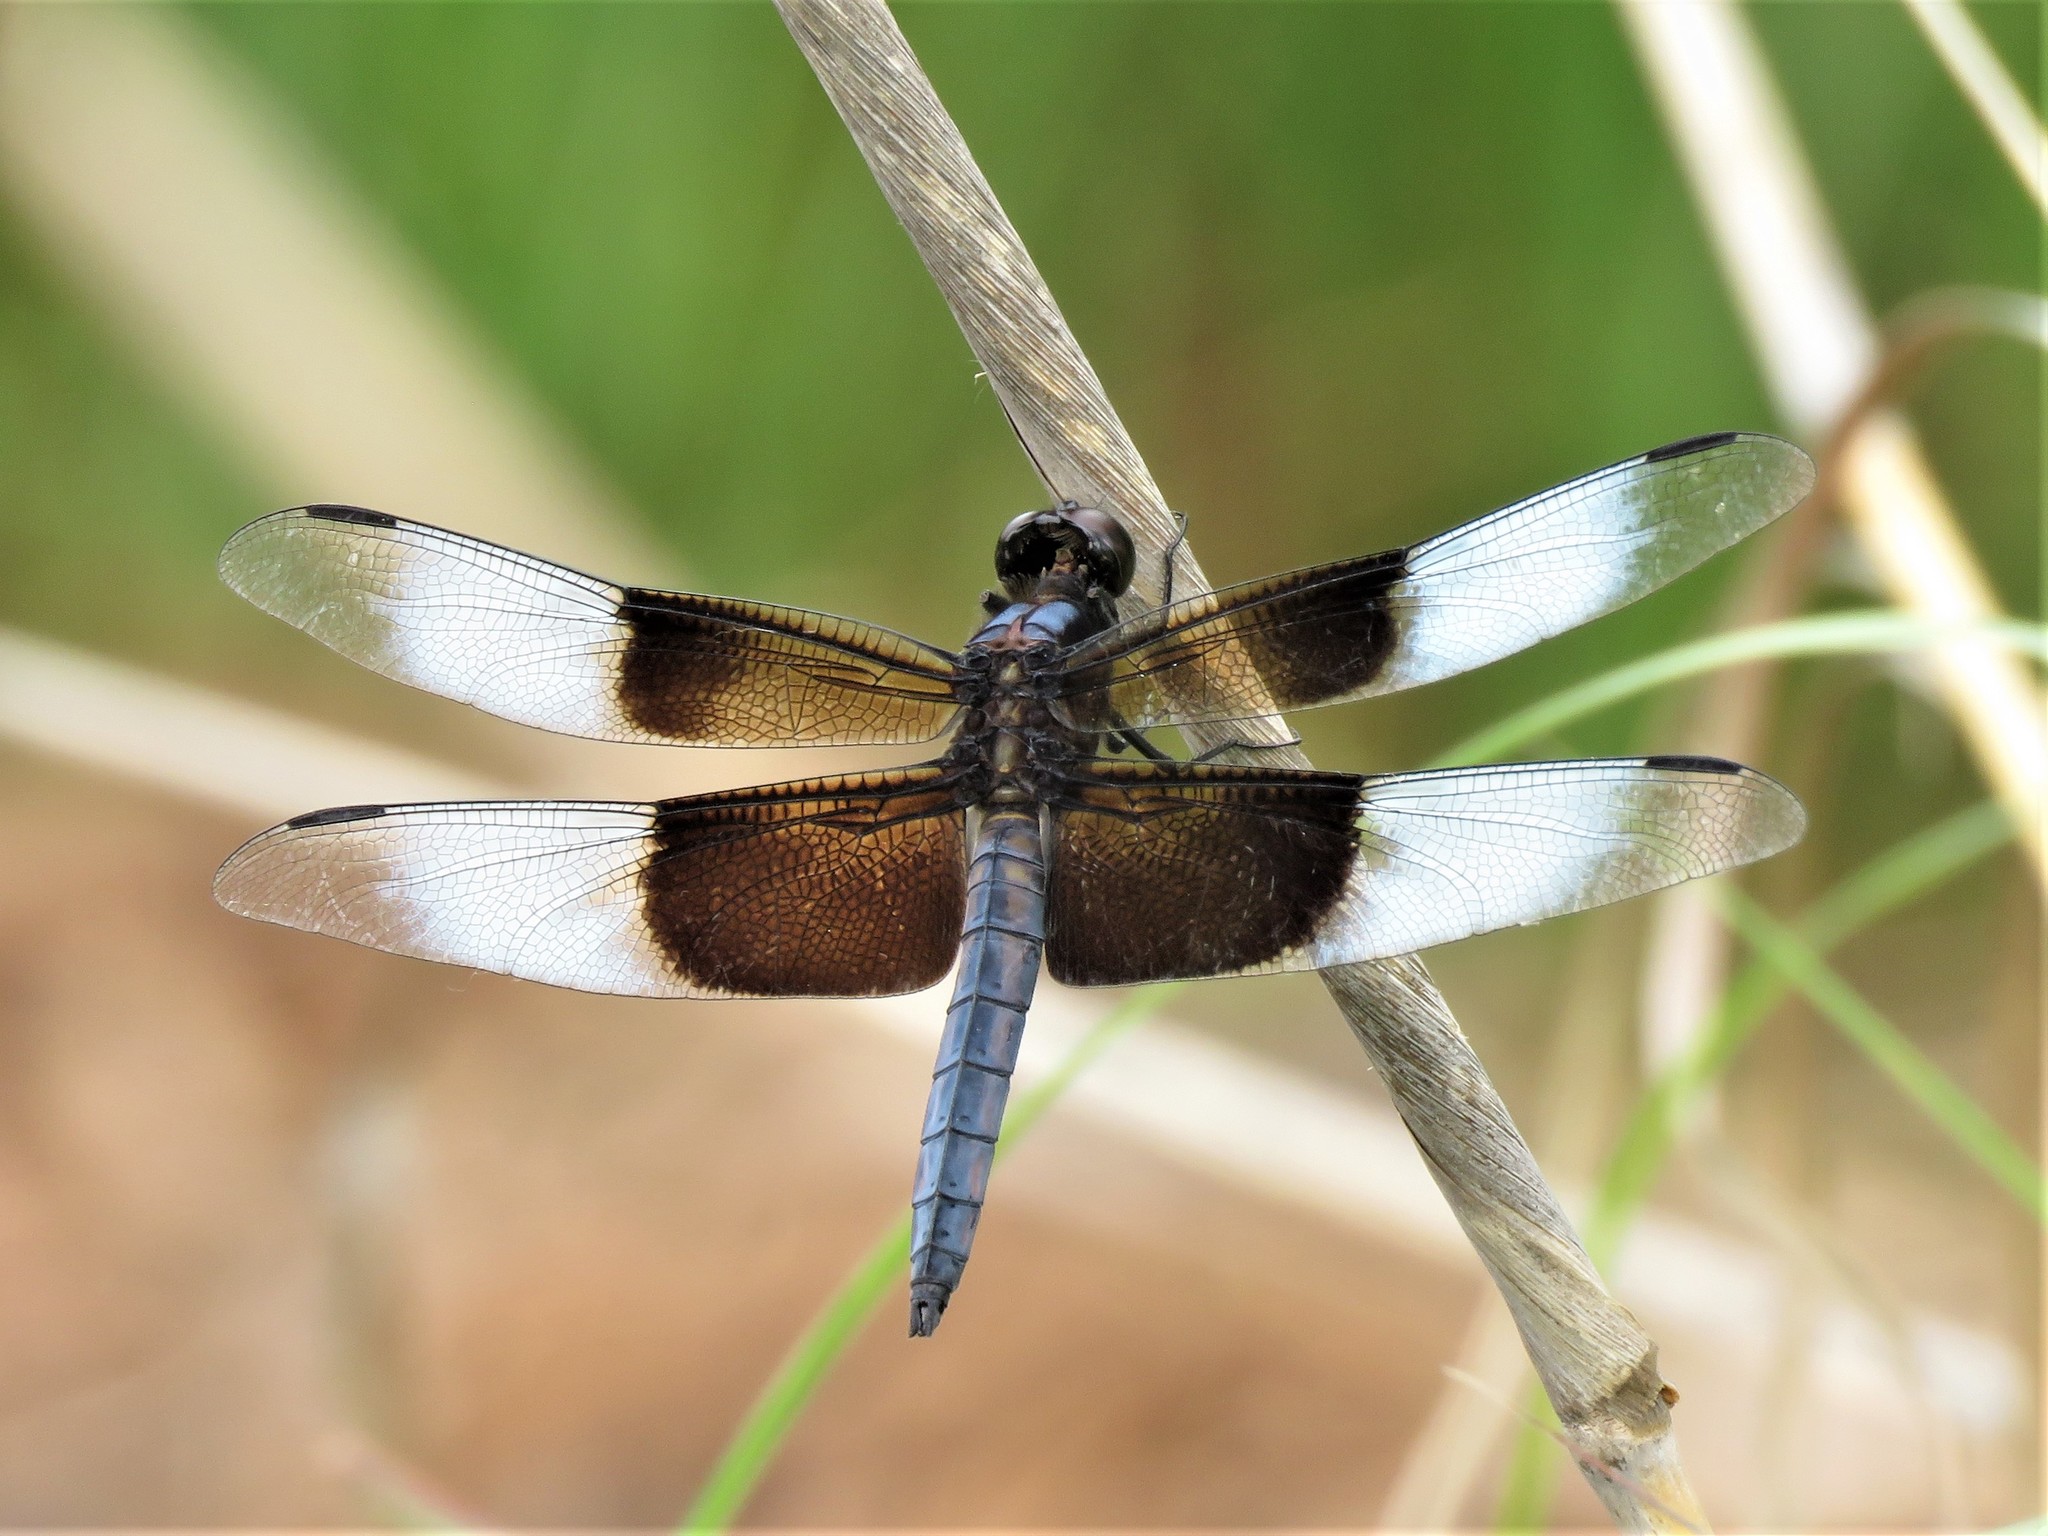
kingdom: Animalia
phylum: Arthropoda
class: Insecta
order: Odonata
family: Libellulidae
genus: Libellula
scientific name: Libellula luctuosa
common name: Widow skimmer
